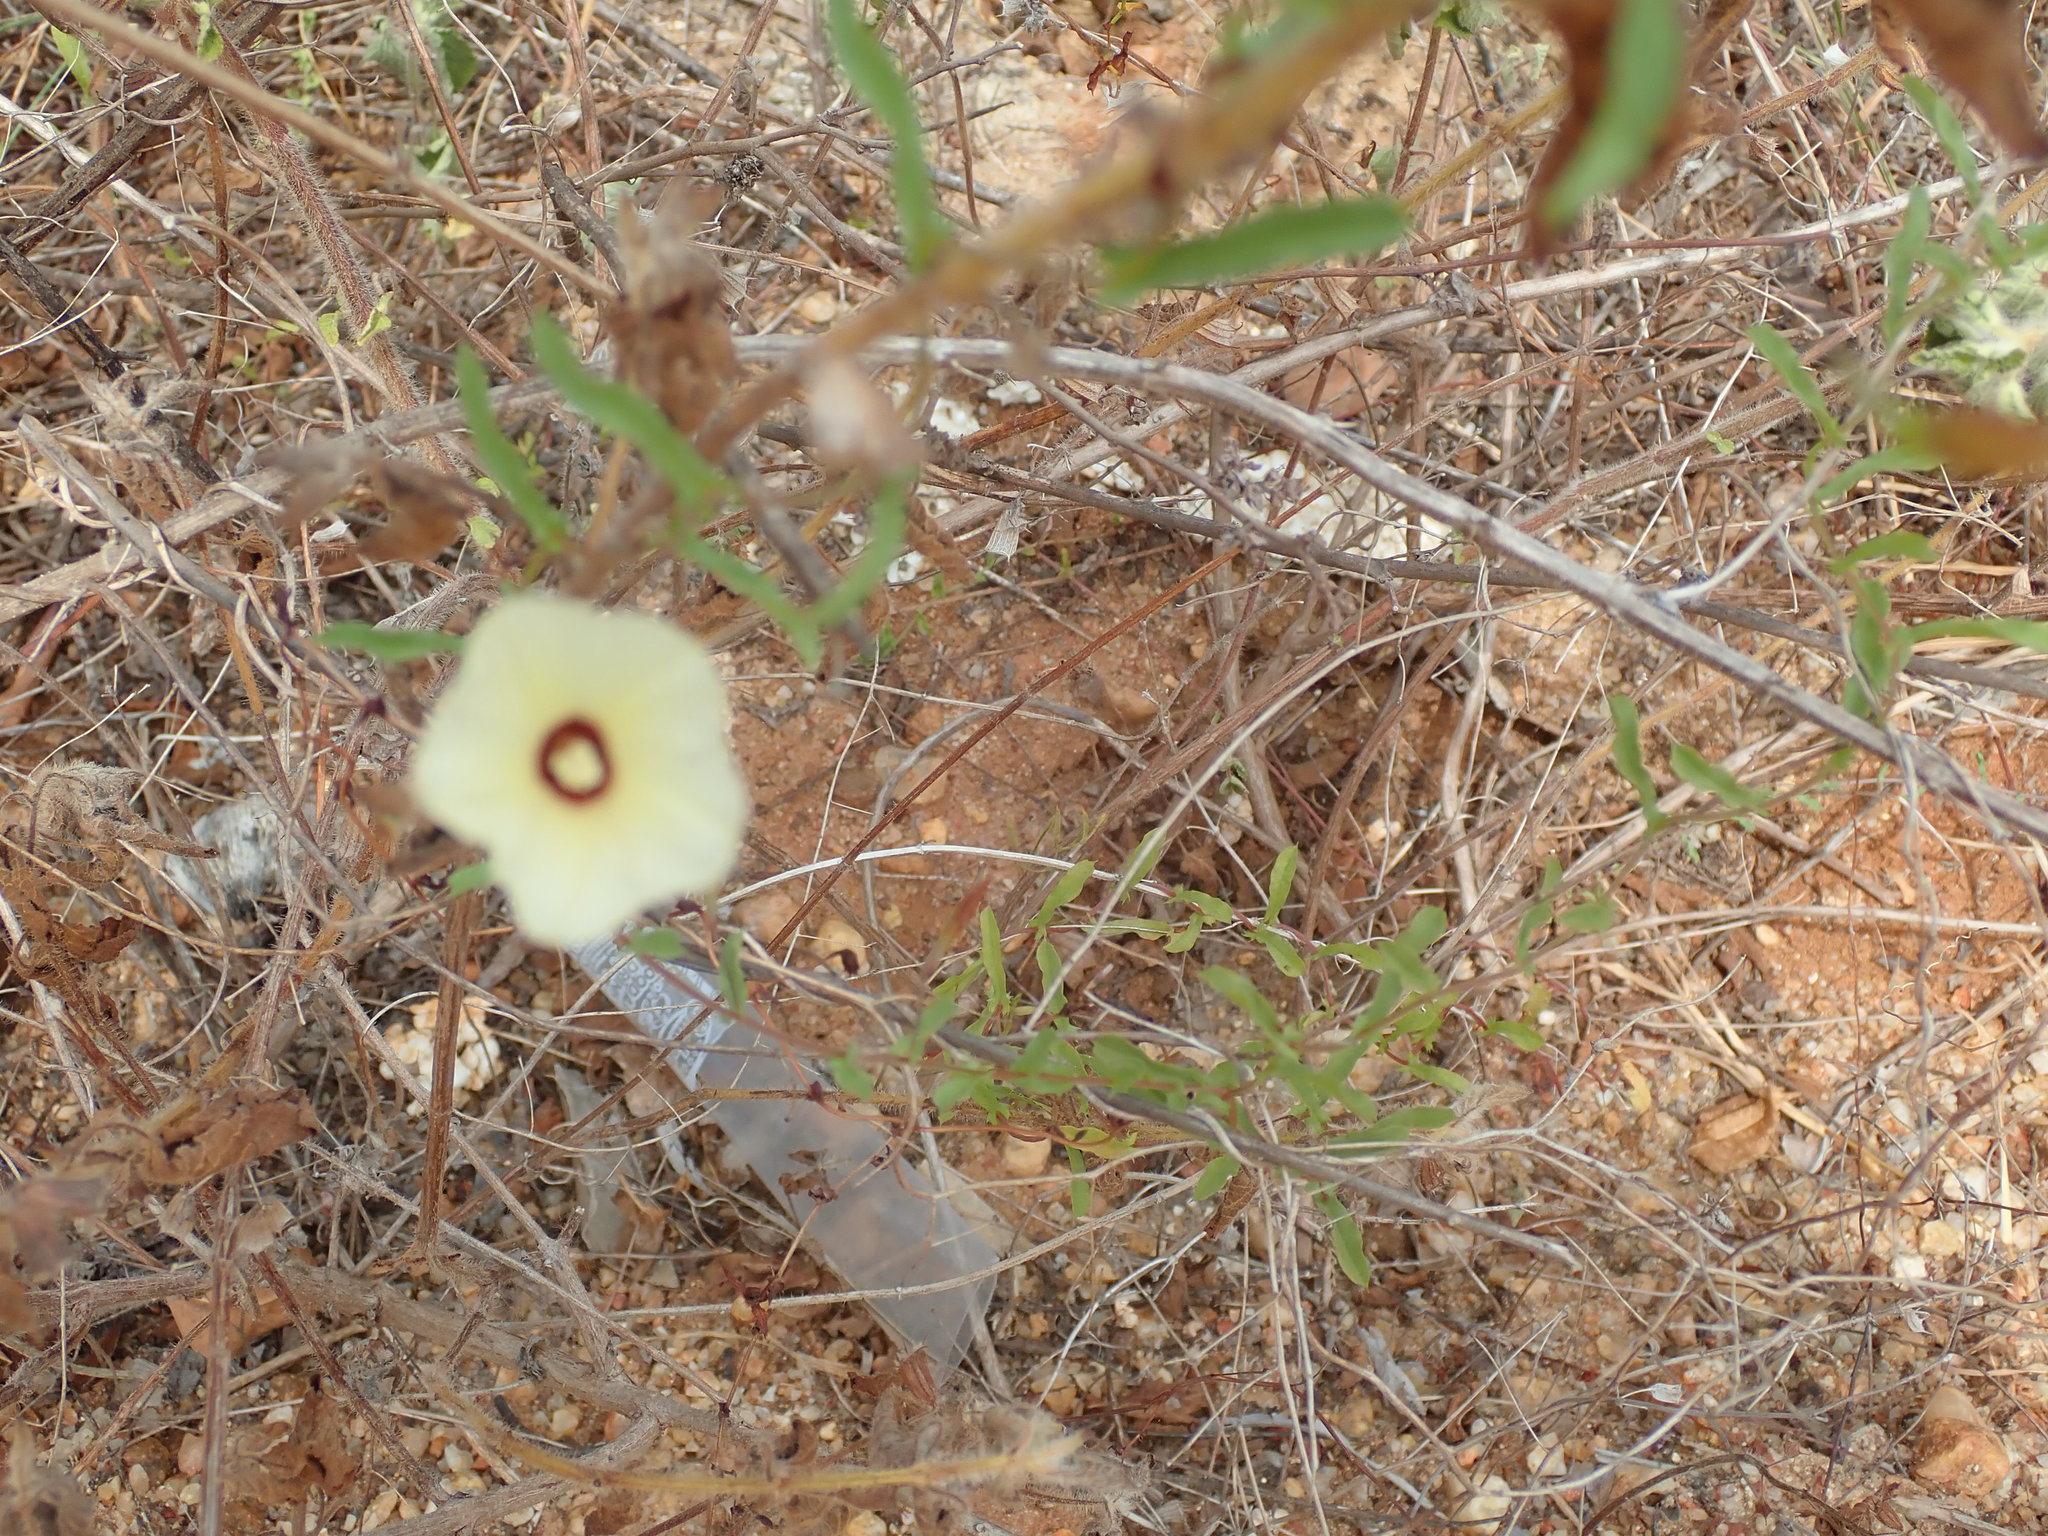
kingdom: Plantae
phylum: Tracheophyta
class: Magnoliopsida
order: Solanales
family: Convolvulaceae
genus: Xenostegia
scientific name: Xenostegia tridentata
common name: African morningvine
